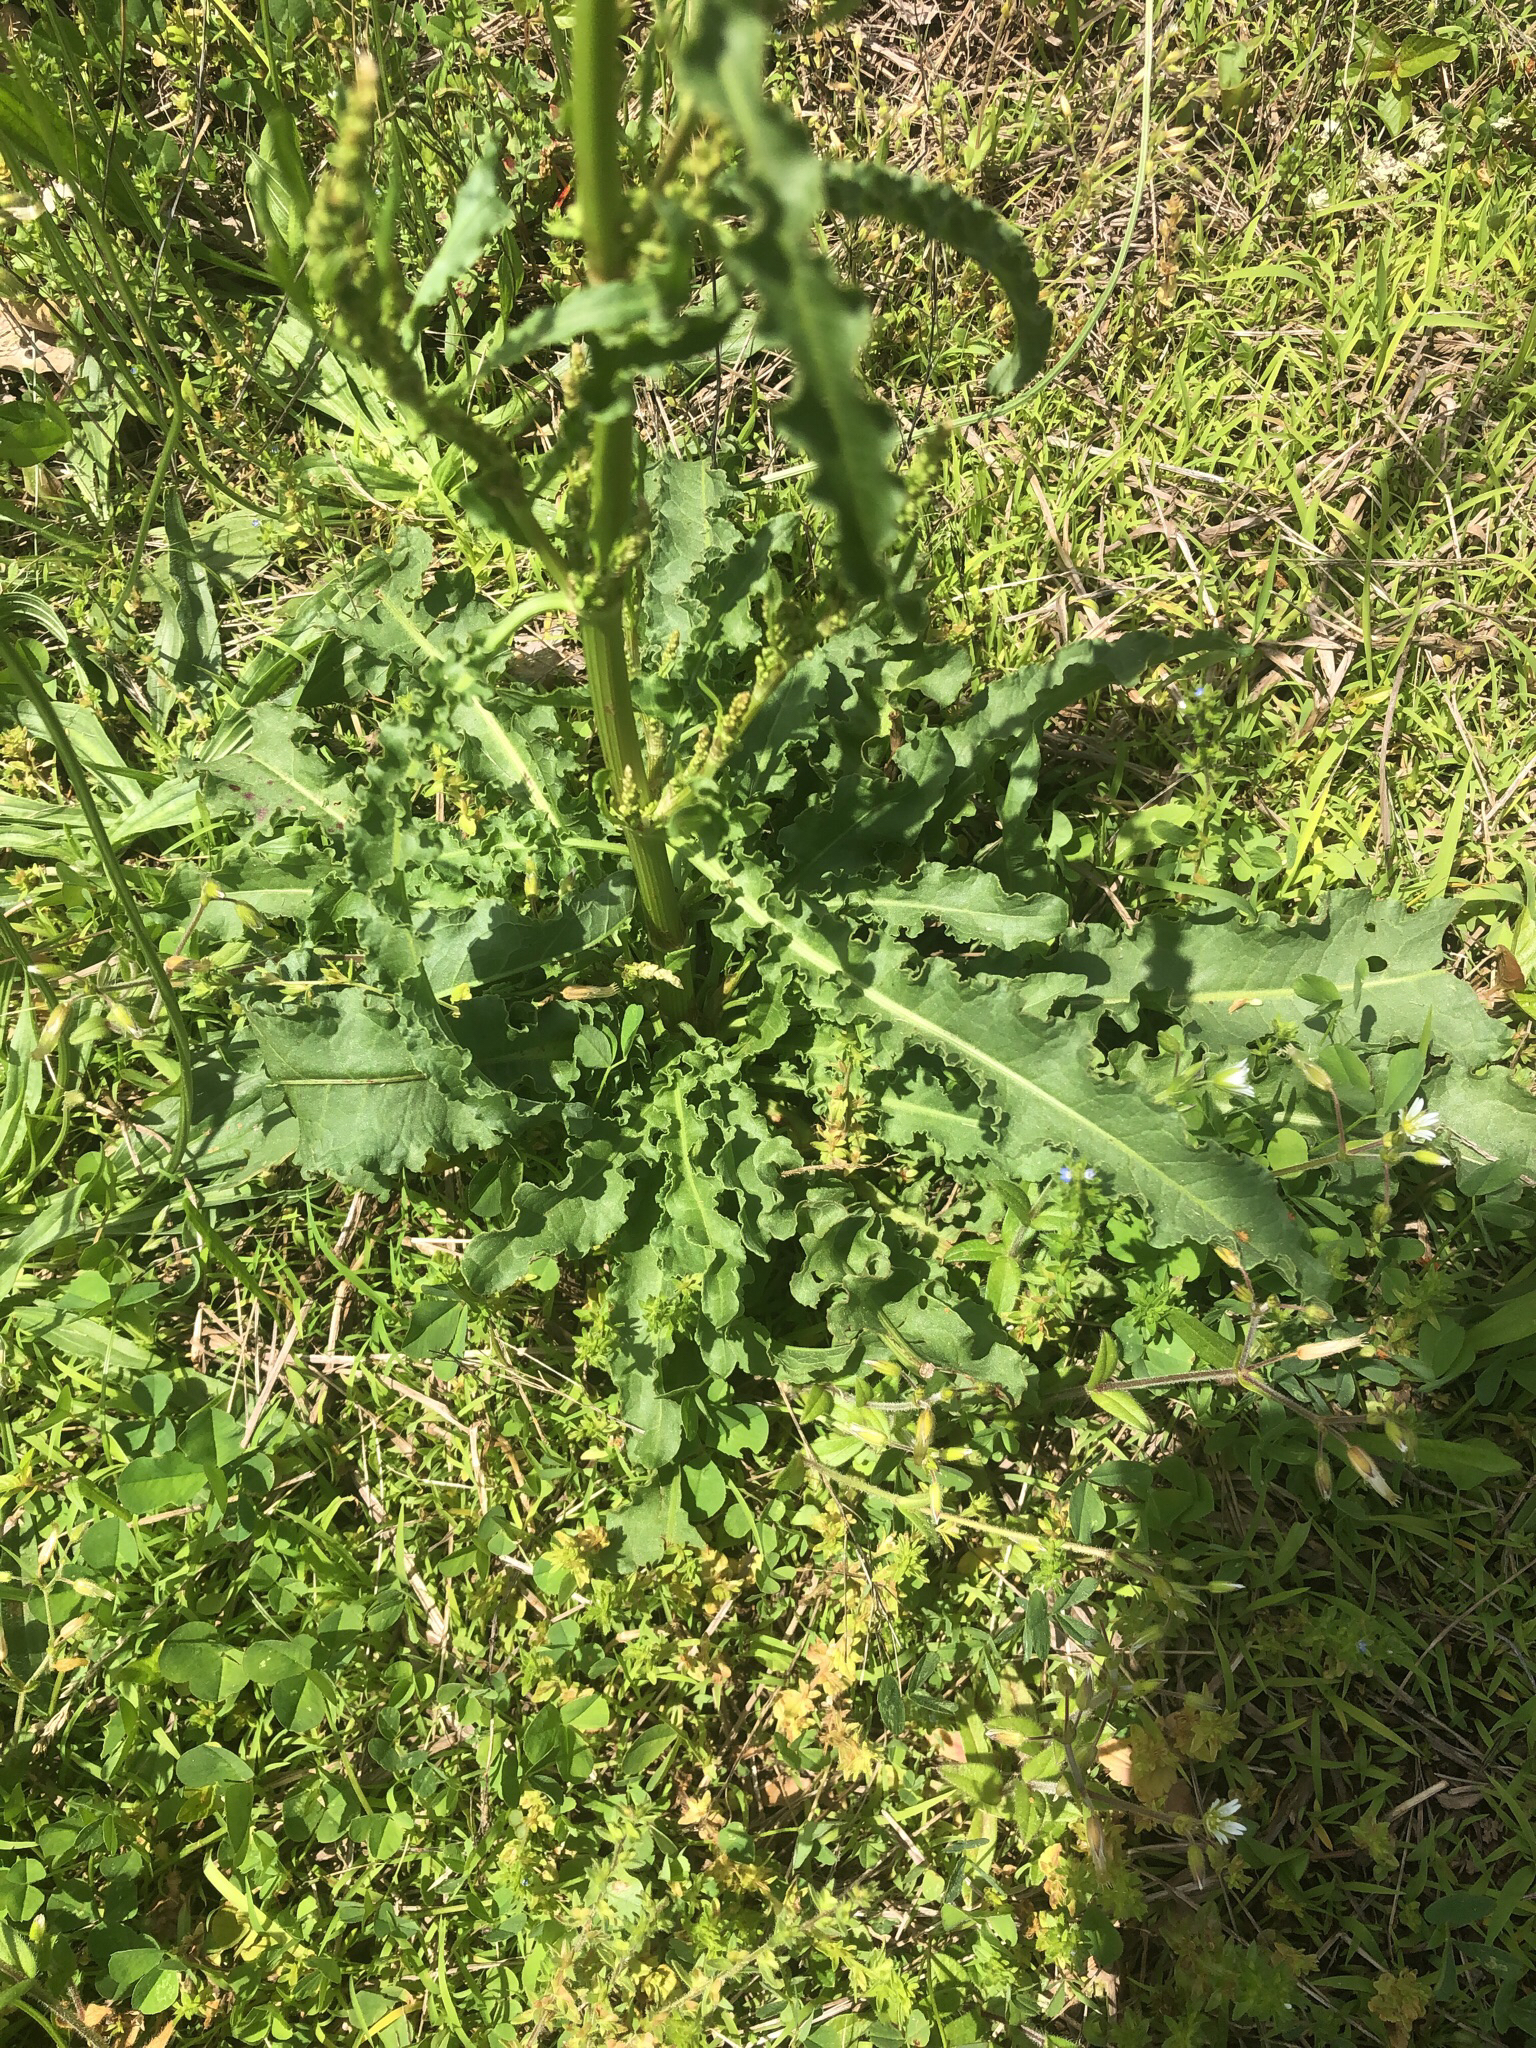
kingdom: Plantae
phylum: Tracheophyta
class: Magnoliopsida
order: Caryophyllales
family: Polygonaceae
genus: Rumex
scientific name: Rumex crispus
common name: Curled dock
